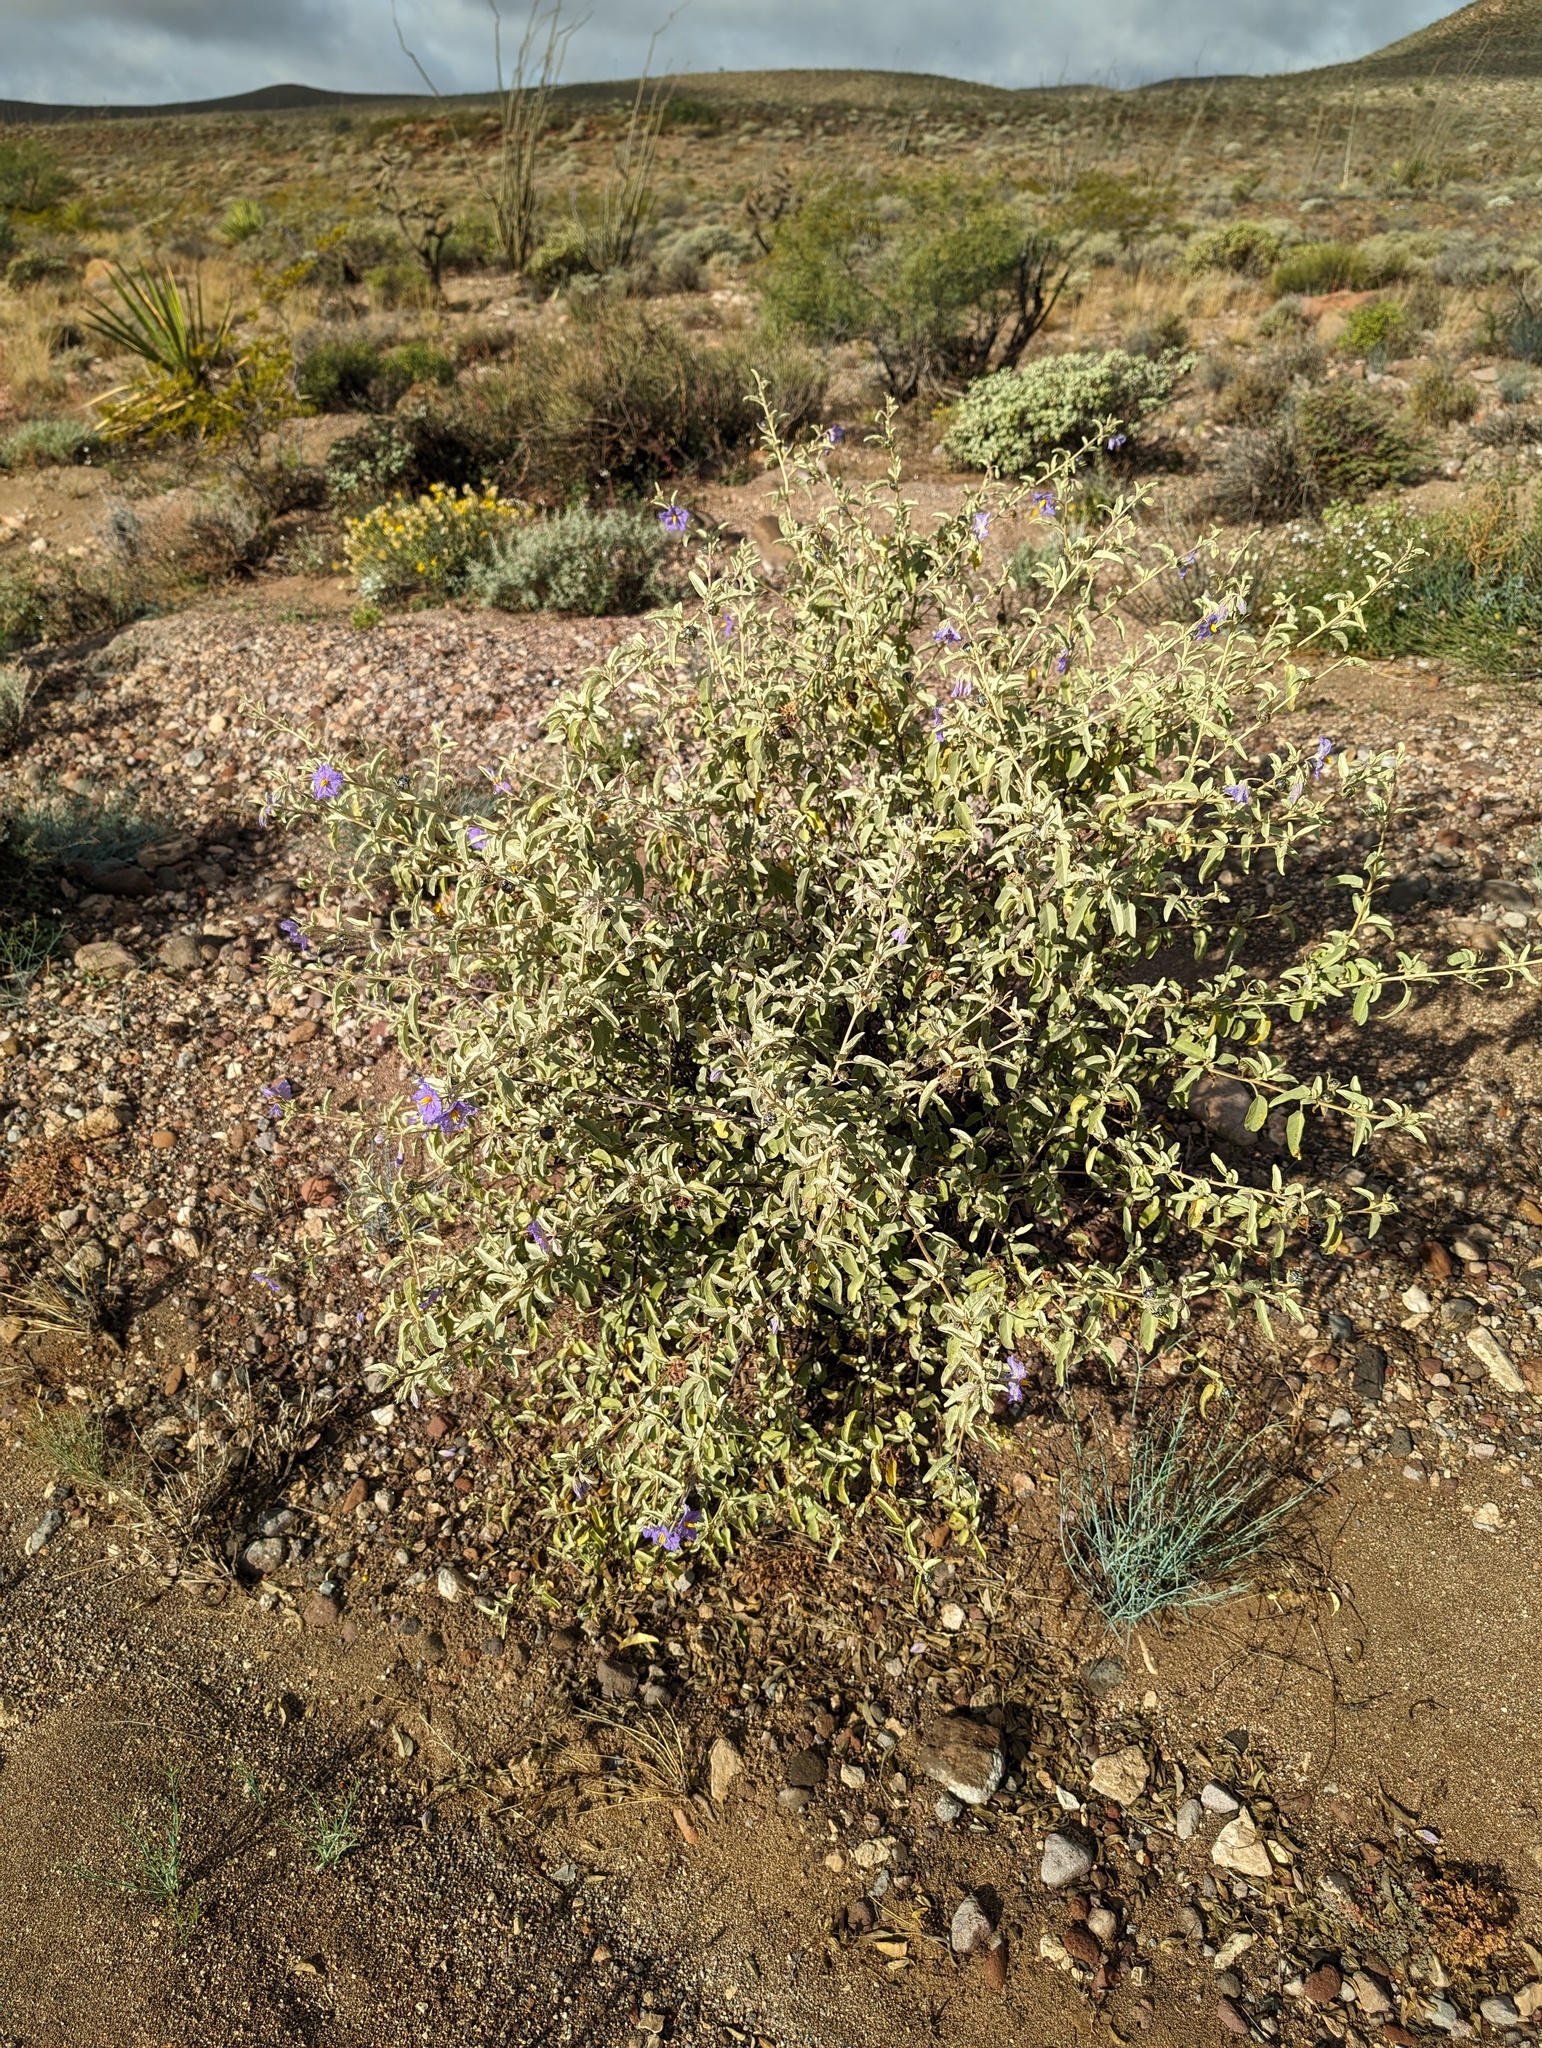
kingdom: Plantae
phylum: Tracheophyta
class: Magnoliopsida
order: Solanales
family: Solanaceae
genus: Solanum
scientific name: Solanum hindsianum
